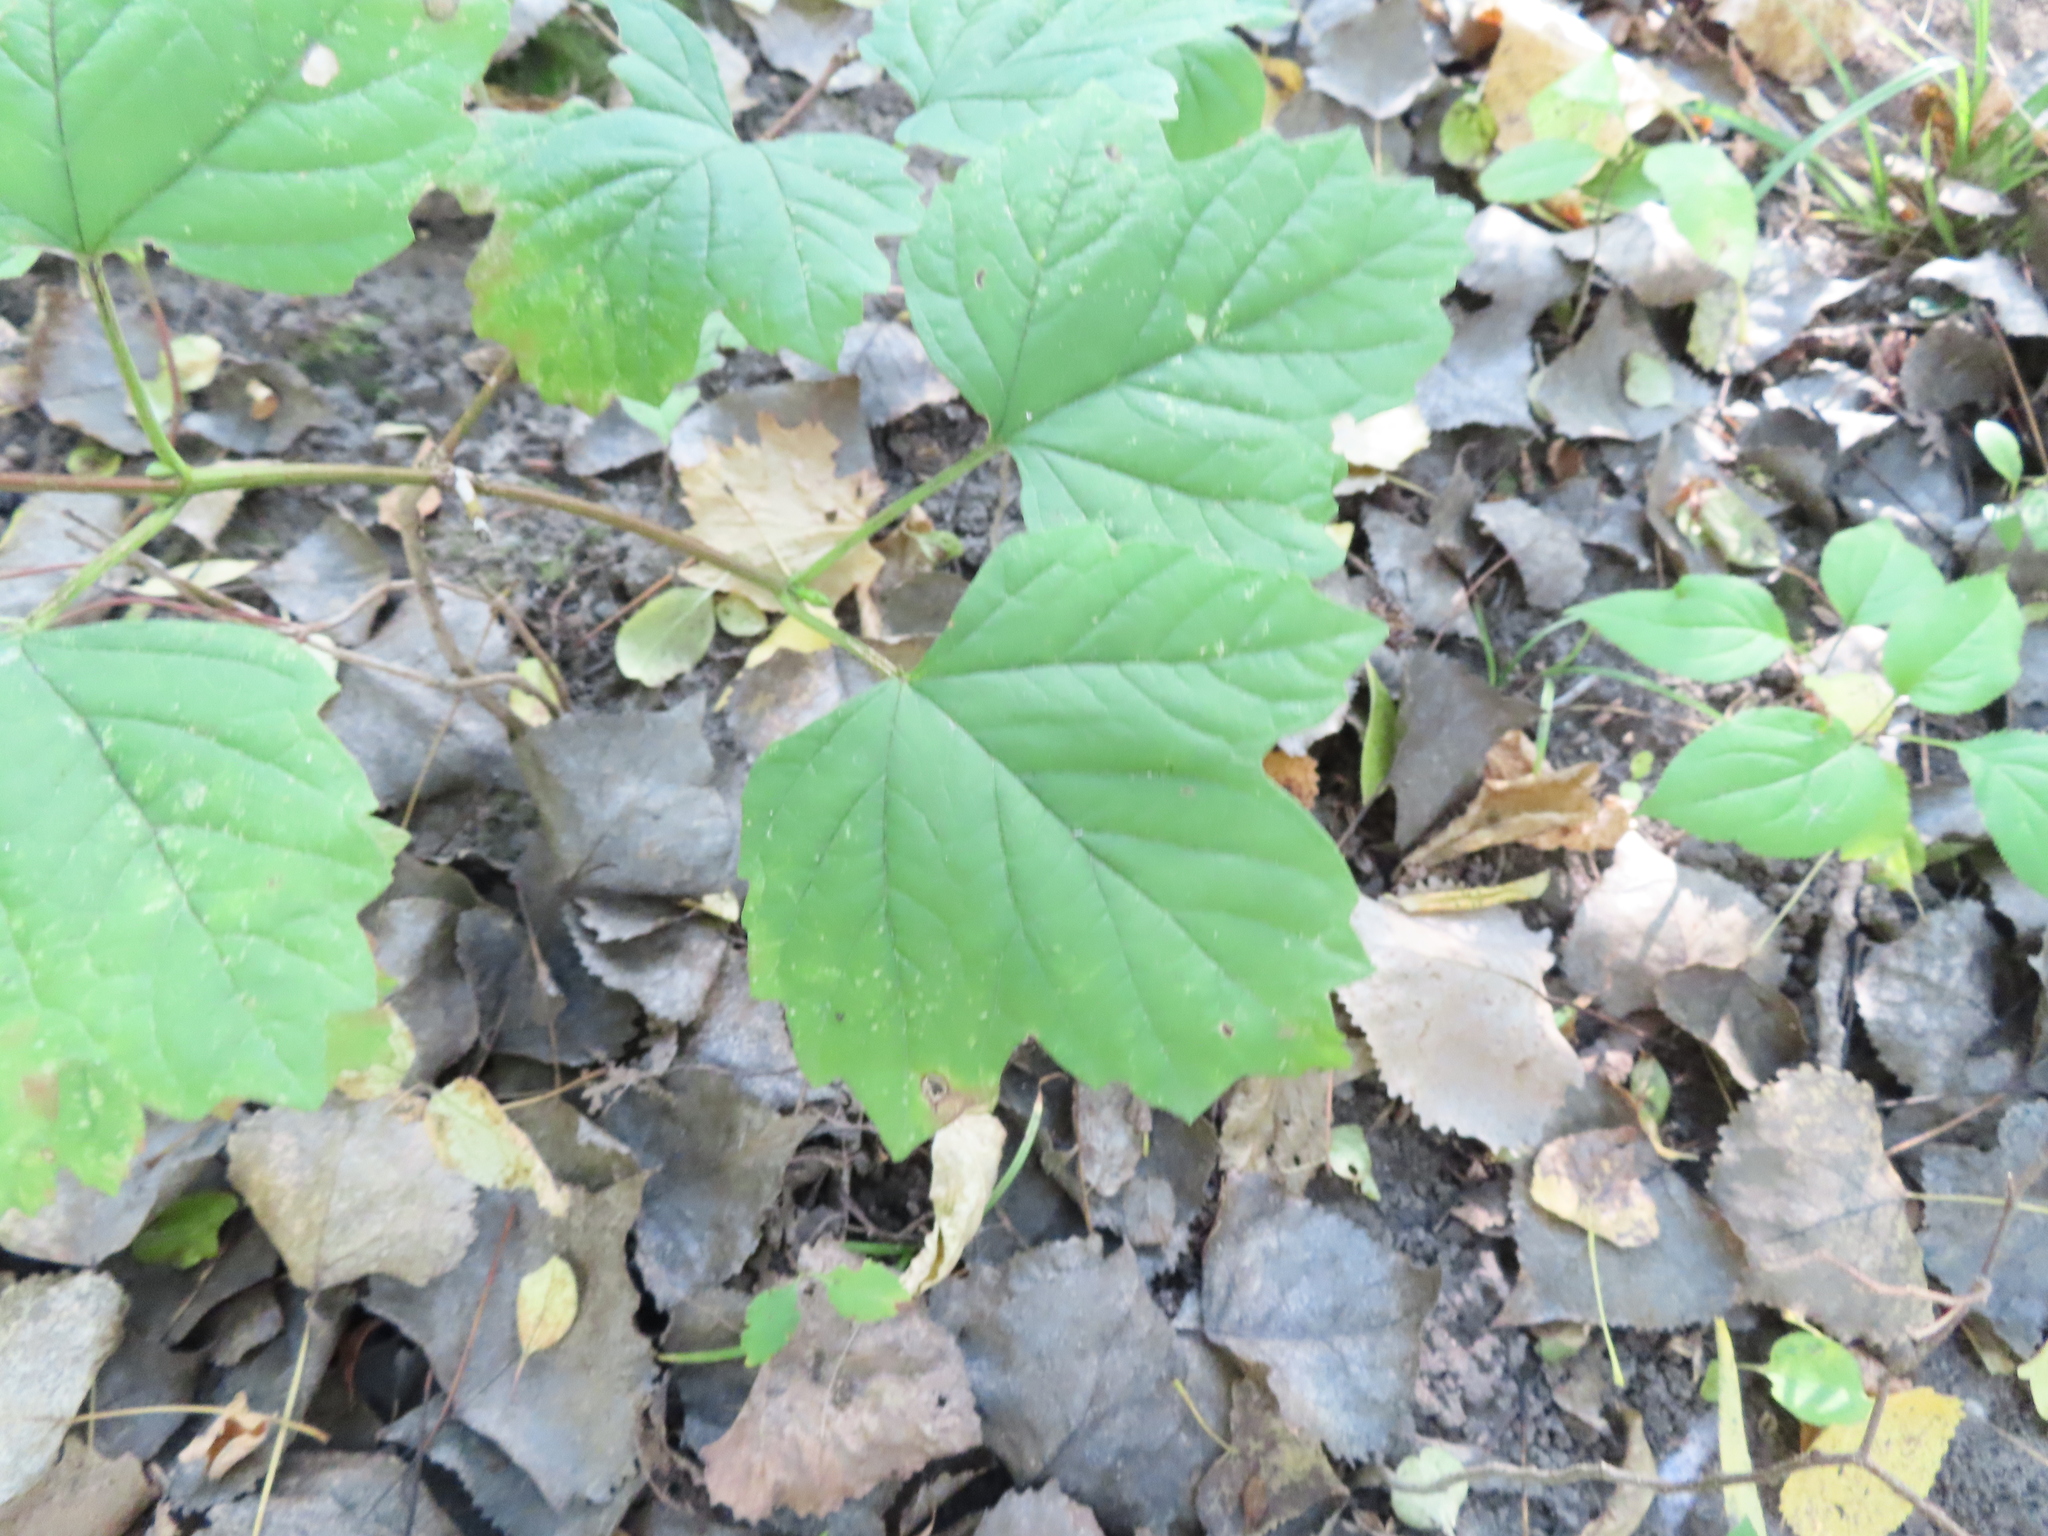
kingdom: Plantae
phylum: Tracheophyta
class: Magnoliopsida
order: Dipsacales
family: Viburnaceae
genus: Viburnum
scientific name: Viburnum opulus
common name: Guelder-rose
